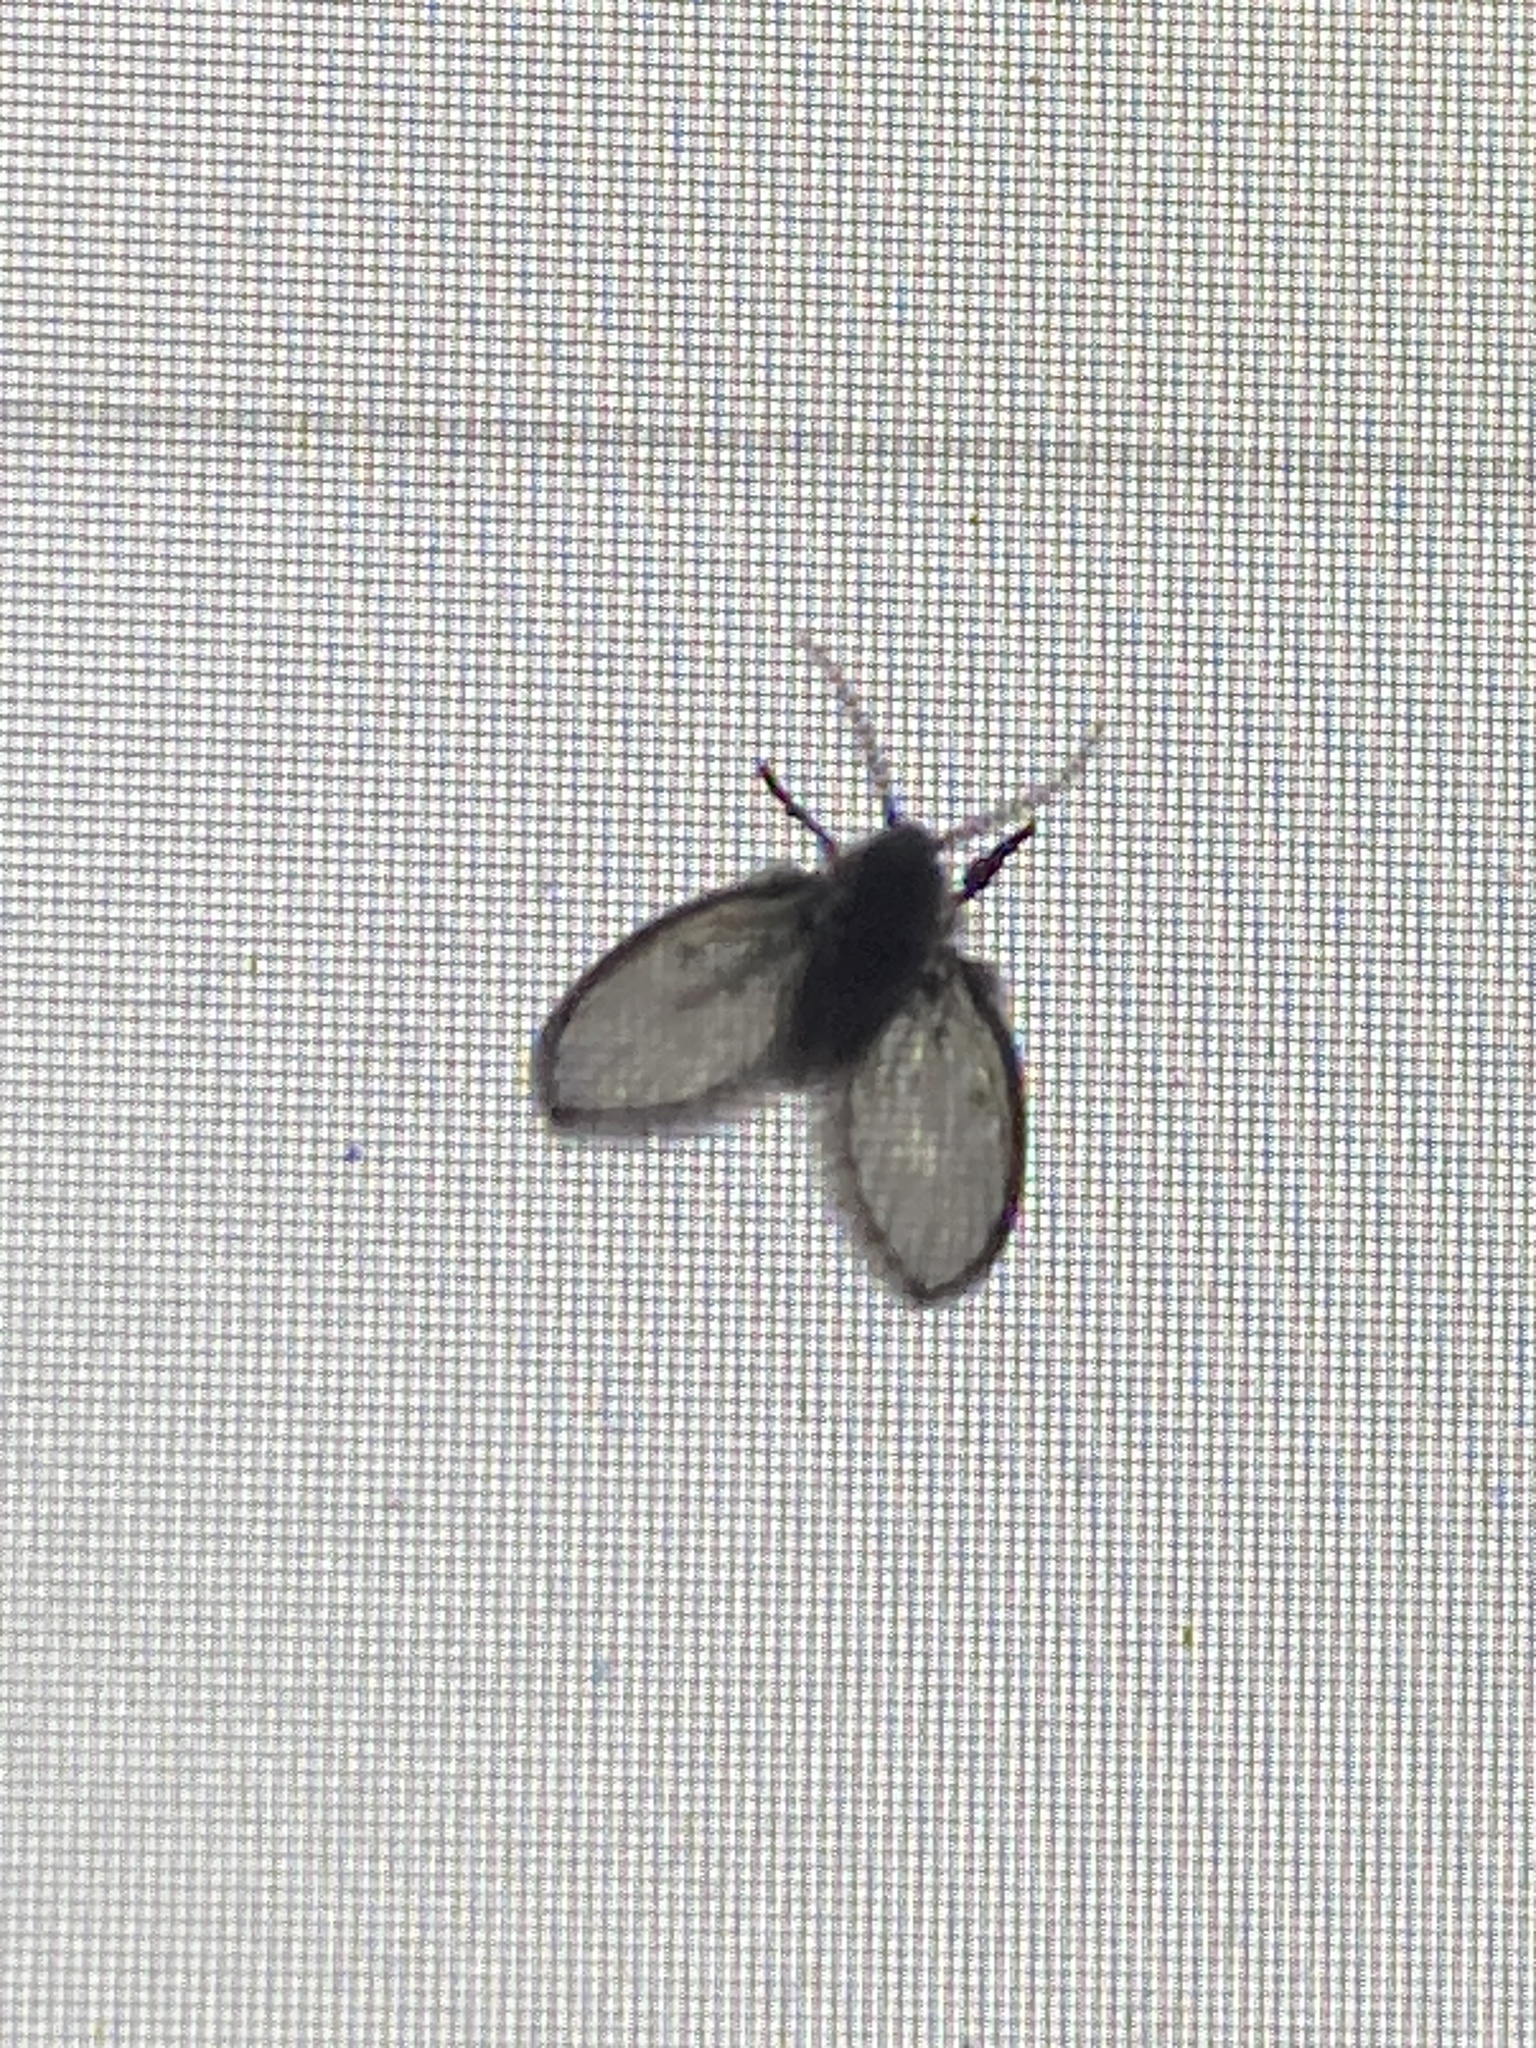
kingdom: Animalia
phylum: Arthropoda
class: Insecta
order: Diptera
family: Psychodidae
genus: Clogmia
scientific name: Clogmia albipunctatus
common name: White-spotted moth fly
